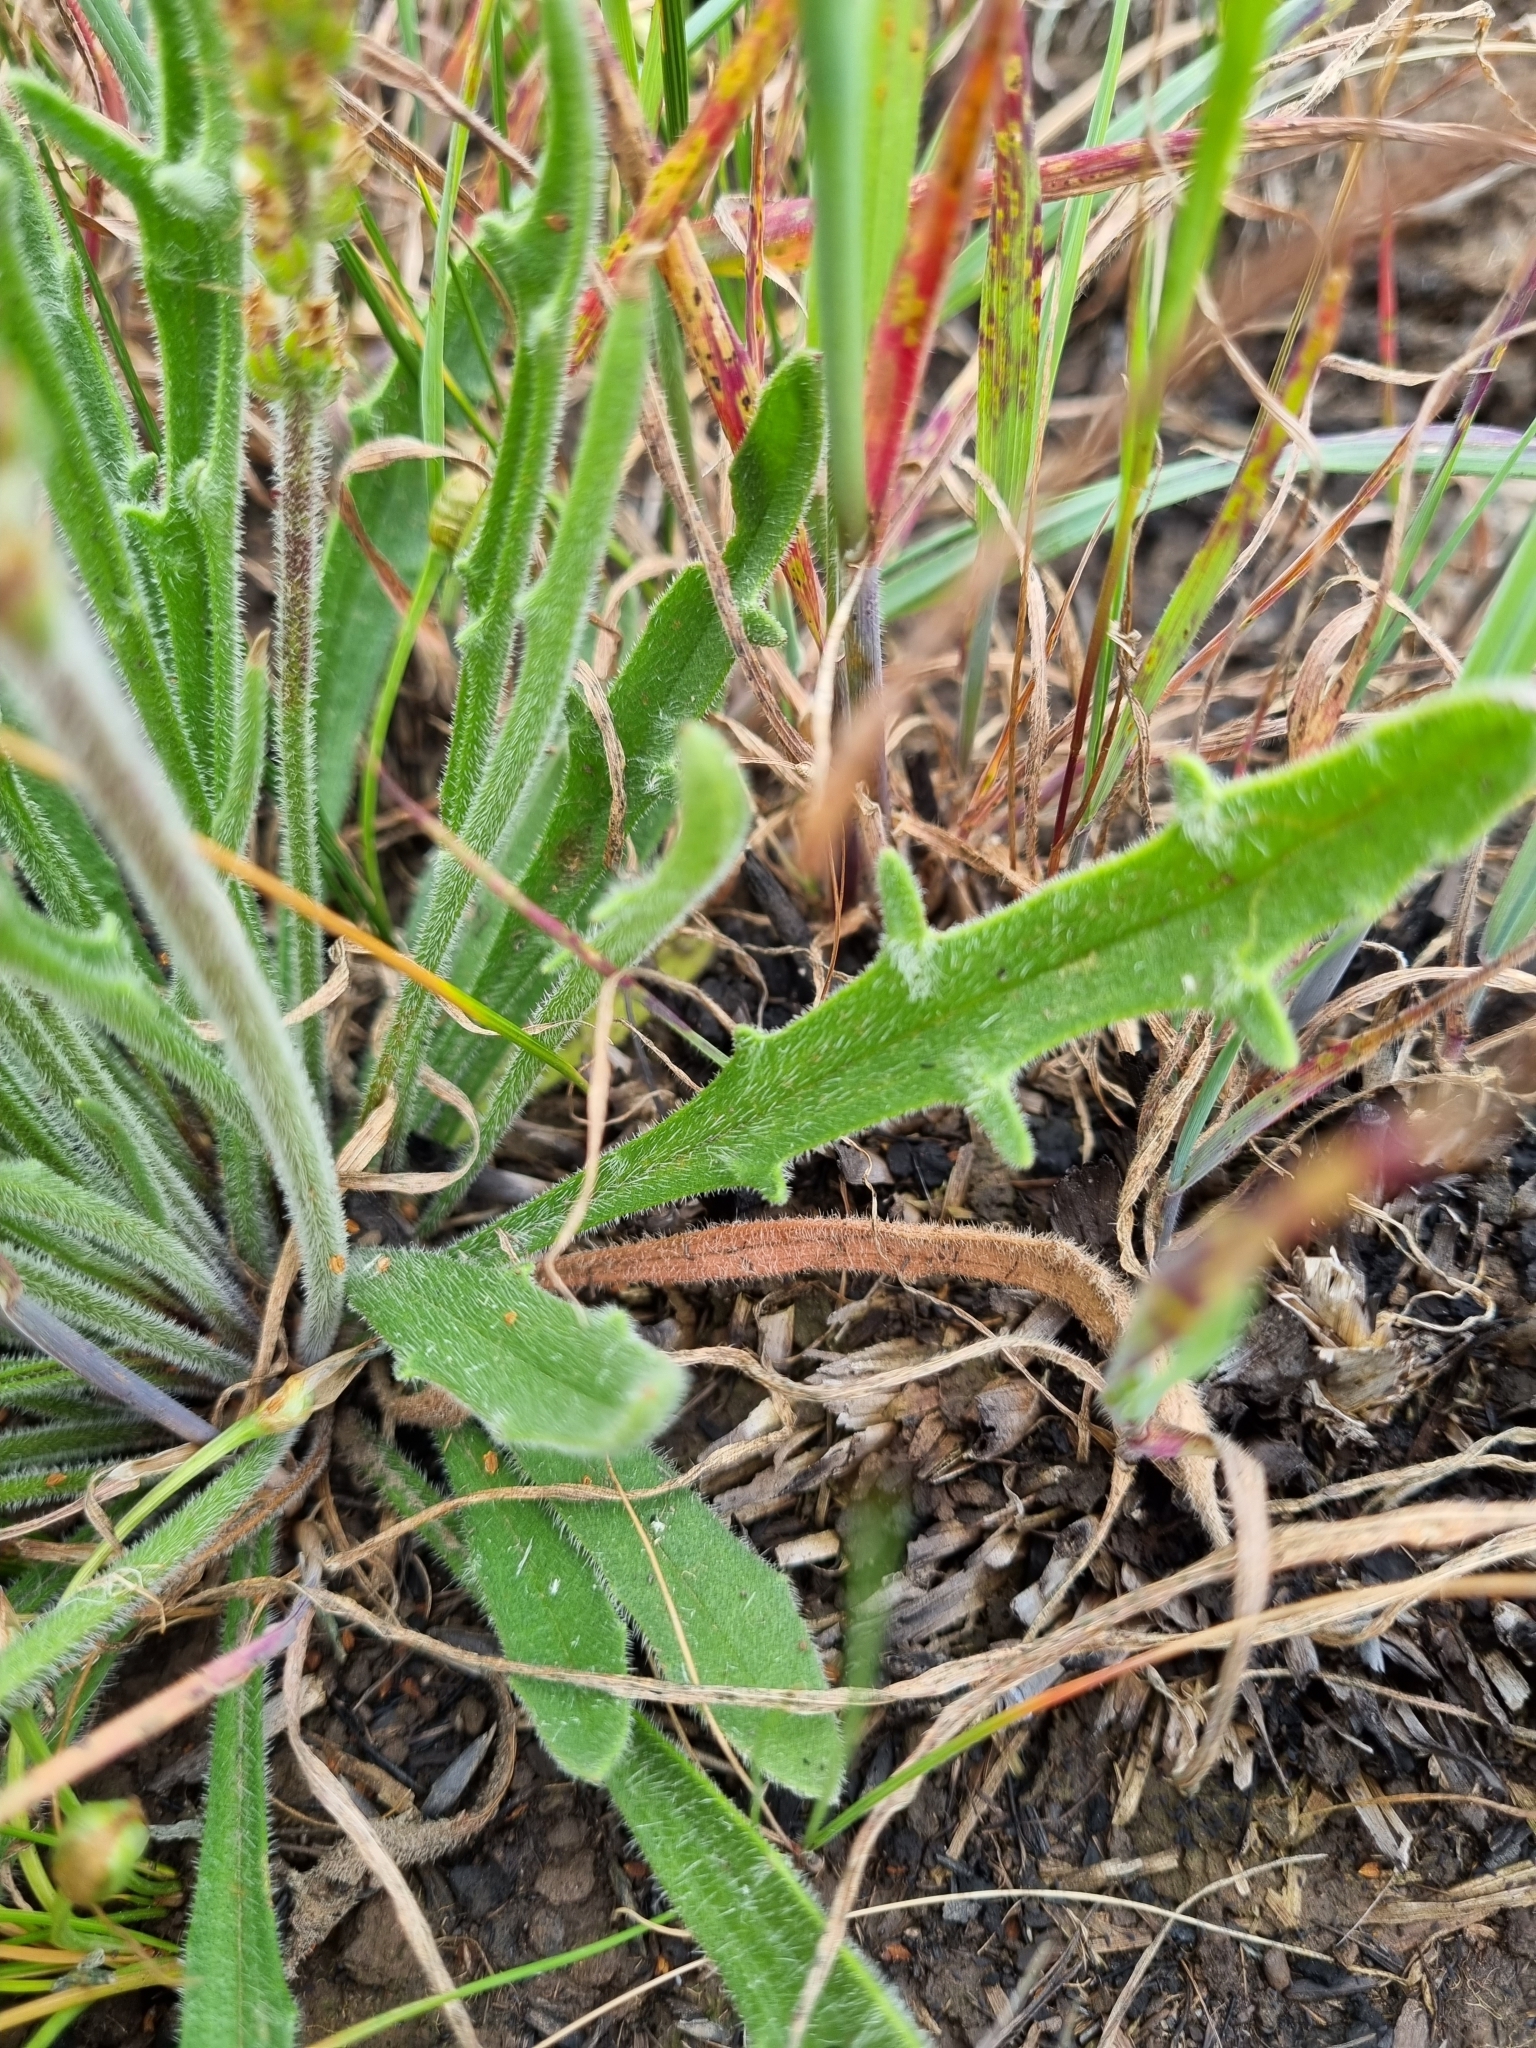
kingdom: Plantae
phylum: Tracheophyta
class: Magnoliopsida
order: Lamiales
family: Plantaginaceae
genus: Plantago
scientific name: Plantago gaudichaudii
